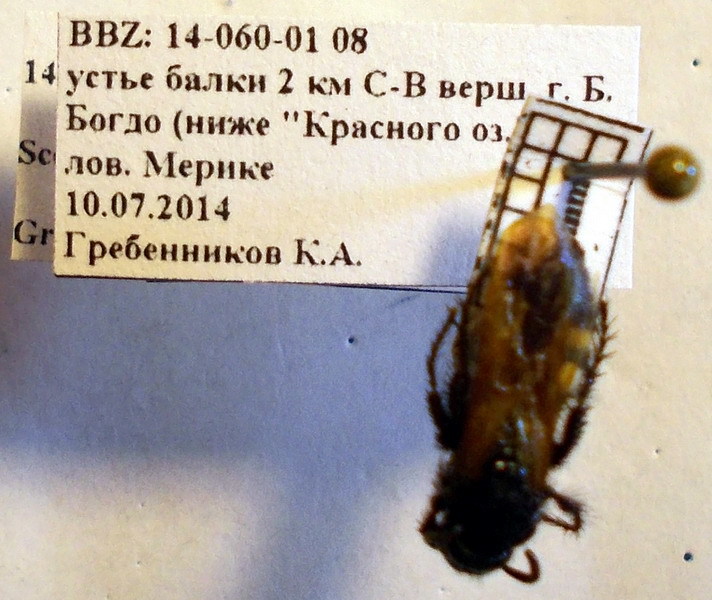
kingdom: Animalia
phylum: Arthropoda
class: Insecta
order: Hymenoptera
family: Vespidae
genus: Vespa
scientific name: Vespa sexmaculata
